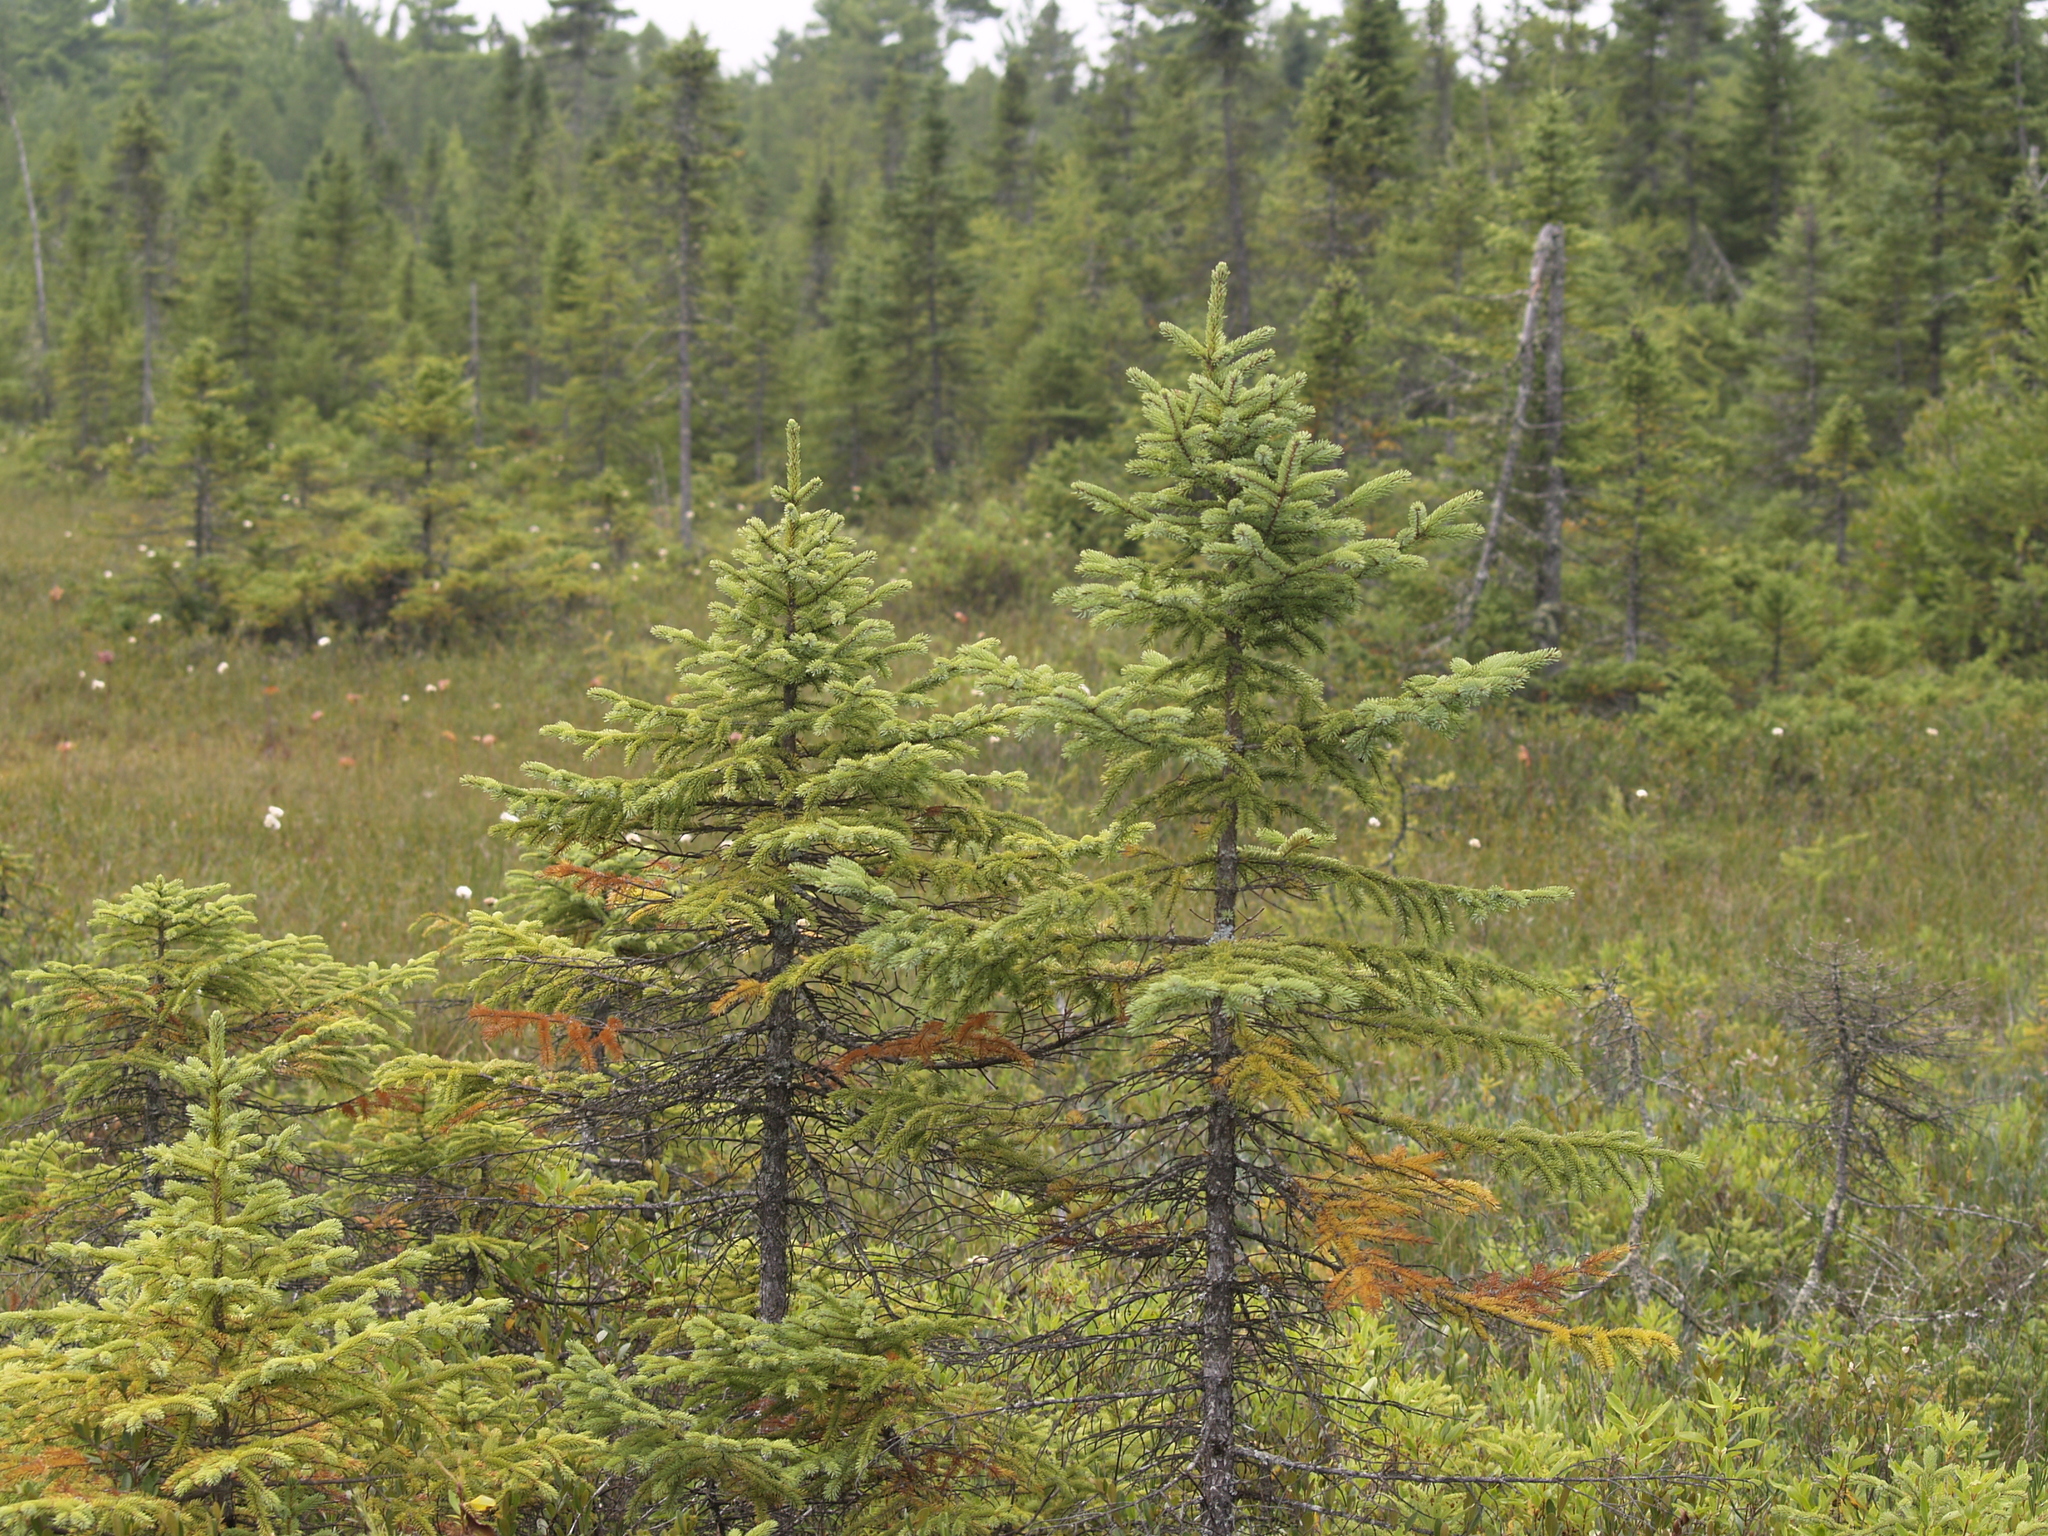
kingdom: Plantae
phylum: Tracheophyta
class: Pinopsida
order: Pinales
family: Pinaceae
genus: Picea
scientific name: Picea mariana
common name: Black spruce
